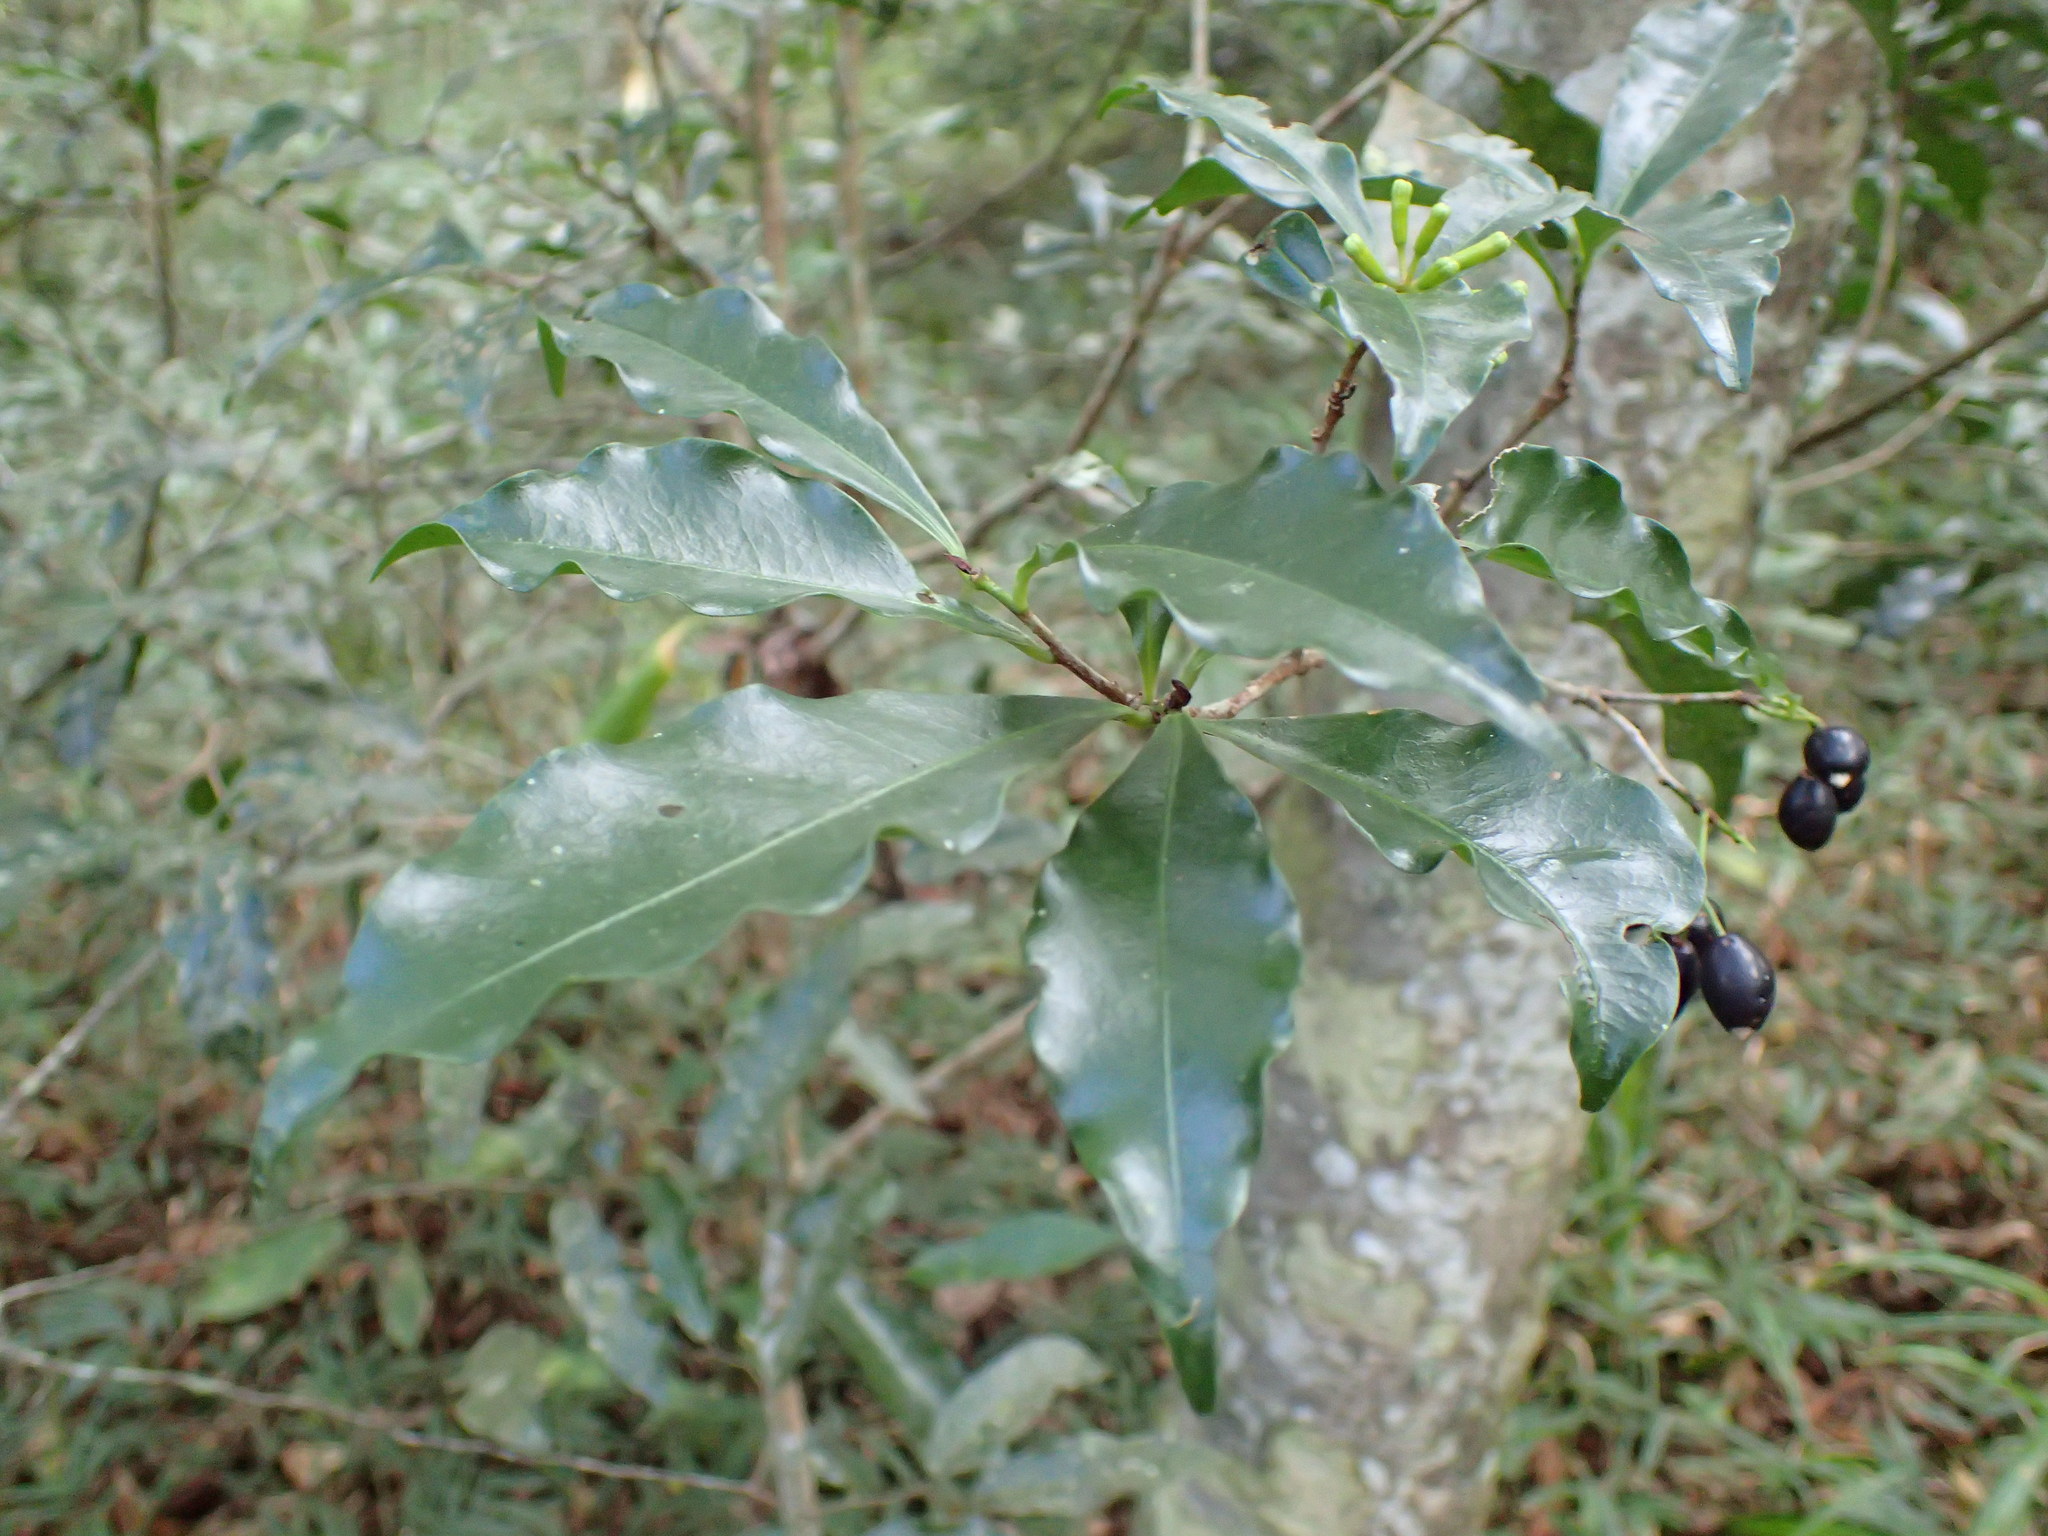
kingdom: Plantae
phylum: Tracheophyta
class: Magnoliopsida
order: Malvales
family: Thymelaeaceae
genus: Peddiea
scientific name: Peddiea africana
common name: Poison olive
